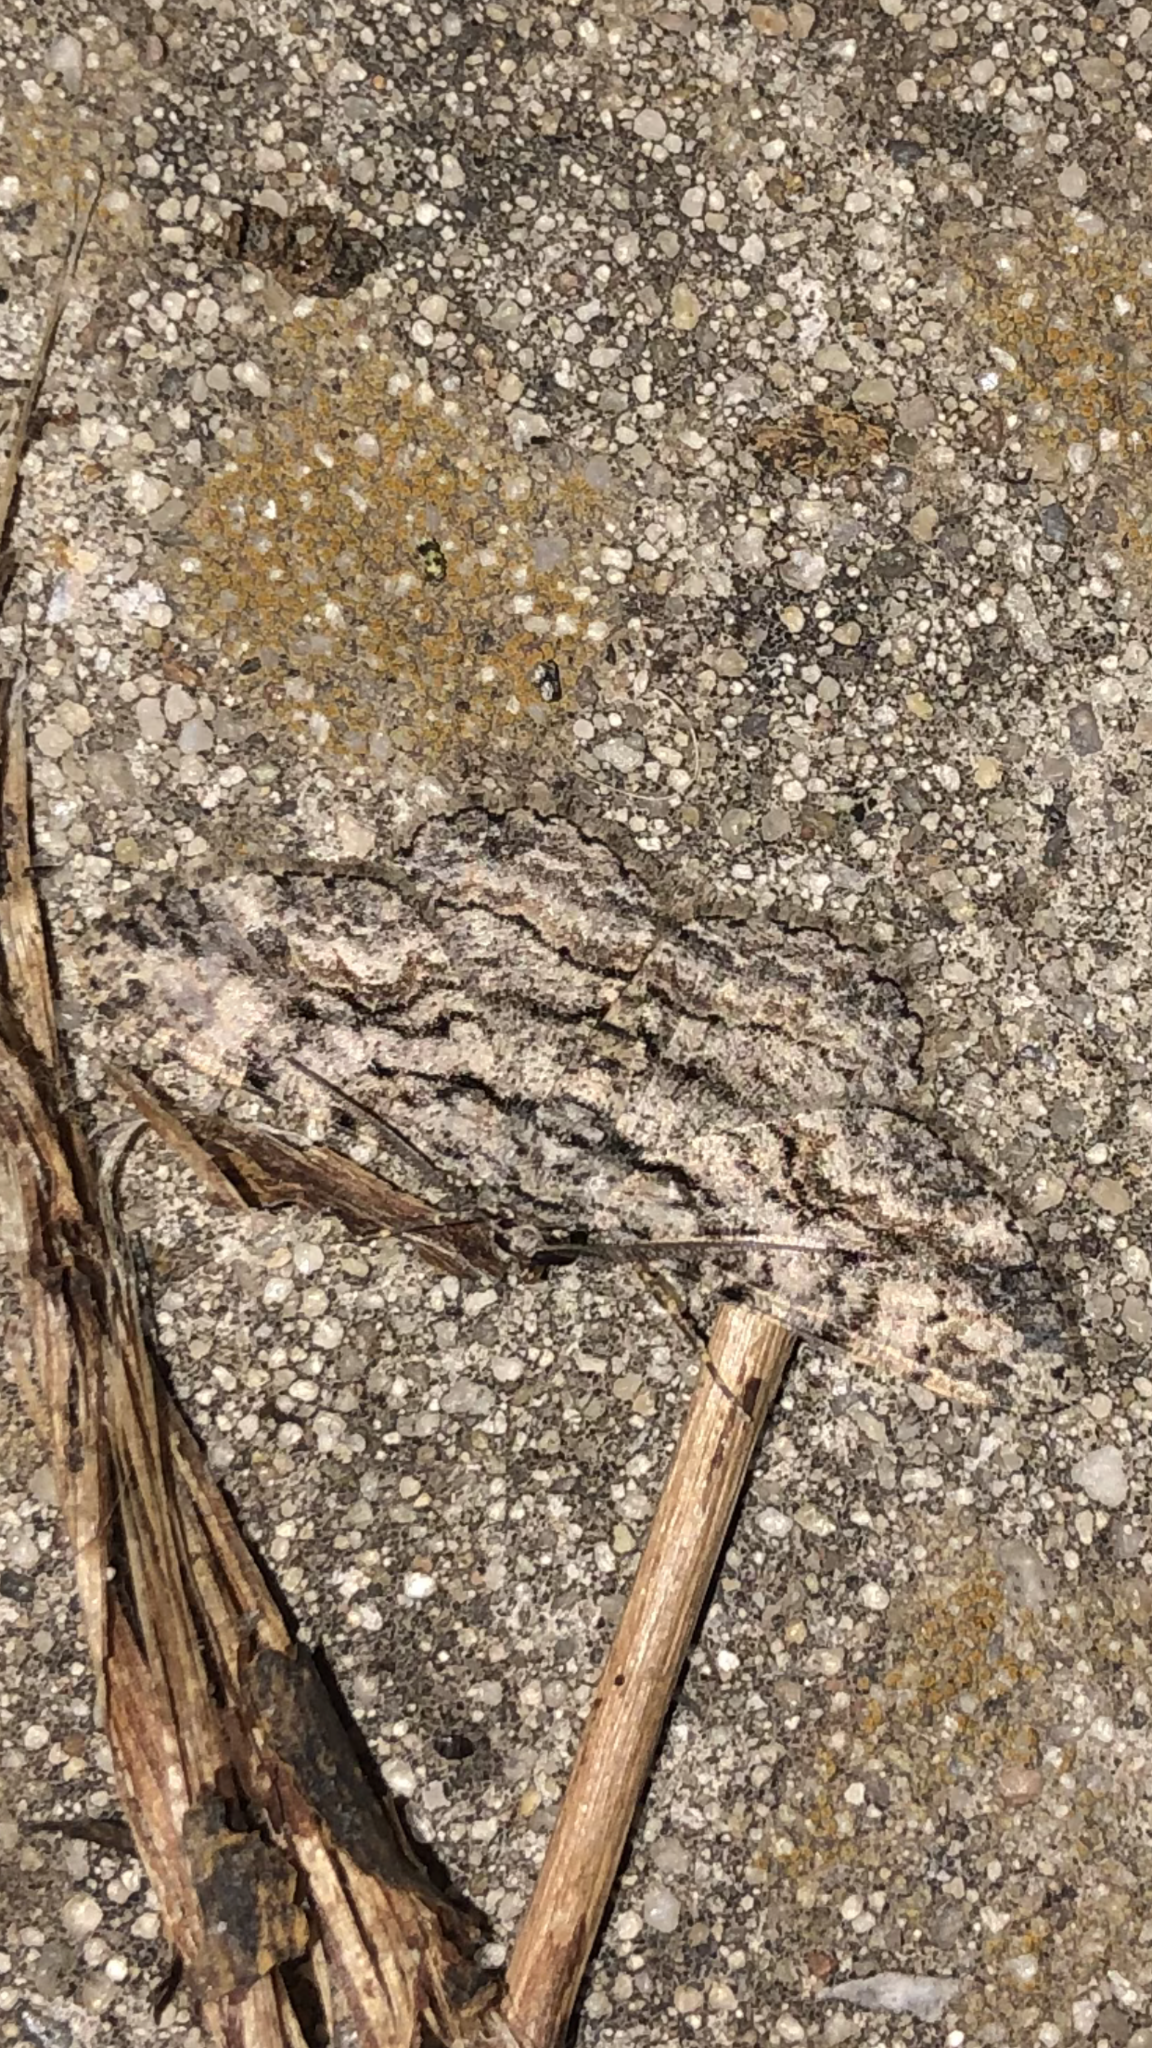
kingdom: Animalia
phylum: Arthropoda
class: Insecta
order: Lepidoptera
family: Geometridae
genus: Anavitrinella
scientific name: Anavitrinella pampinaria
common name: Common gray
